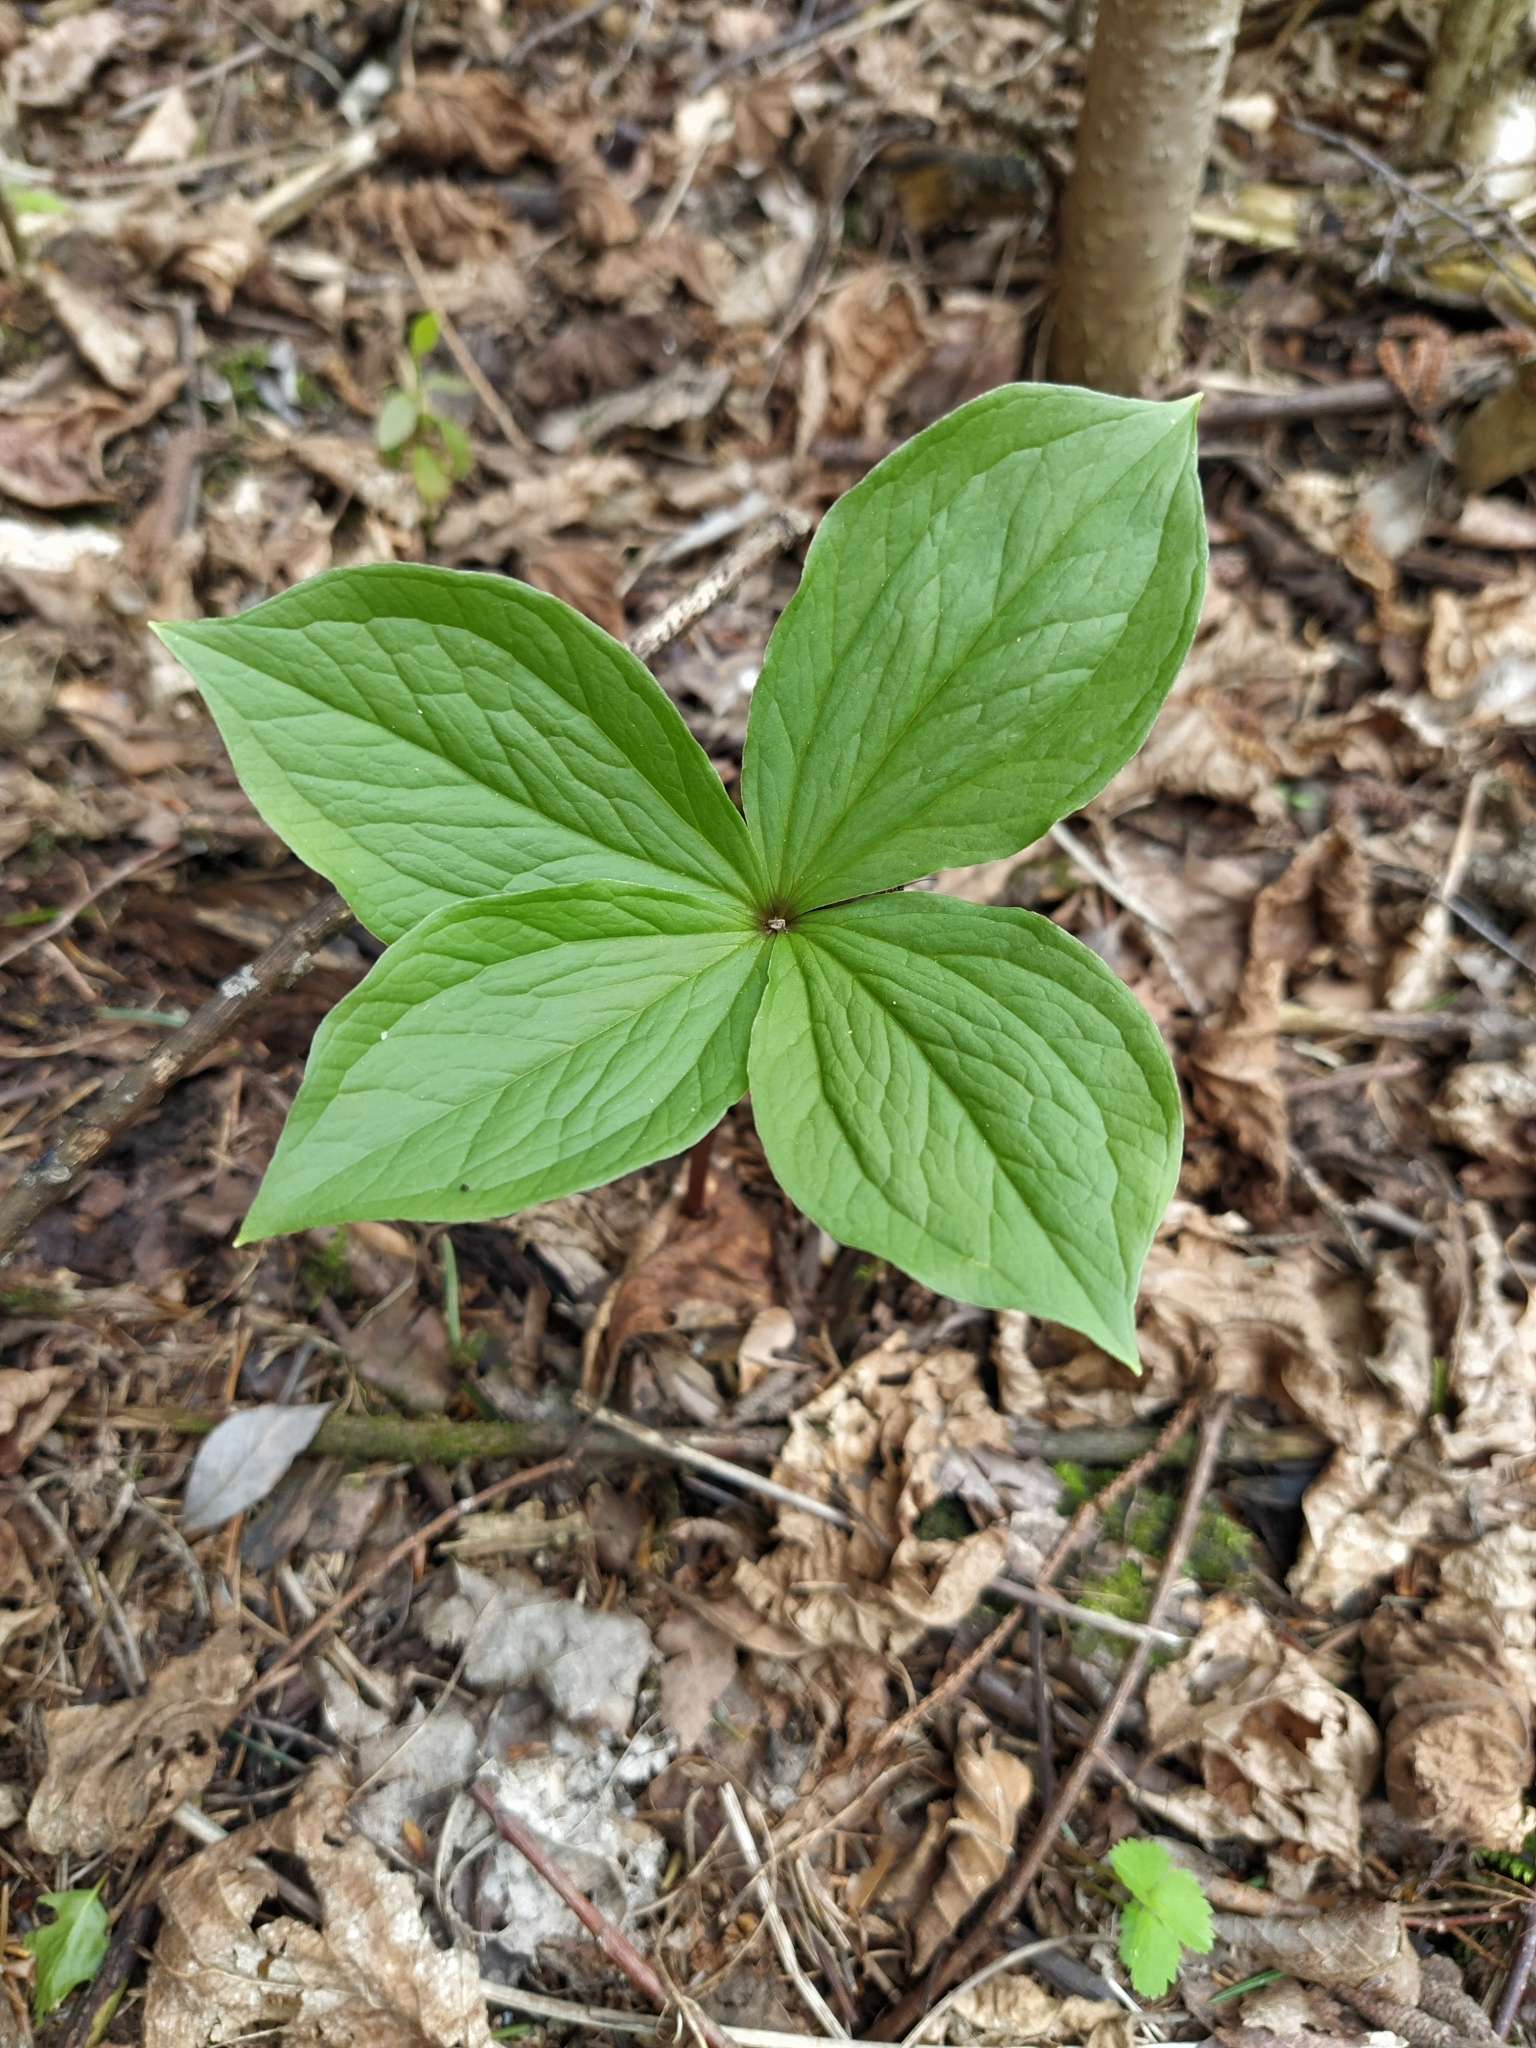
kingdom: Plantae
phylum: Tracheophyta
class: Liliopsida
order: Liliales
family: Melanthiaceae
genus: Paris
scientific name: Paris quadrifolia
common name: Herb-paris
